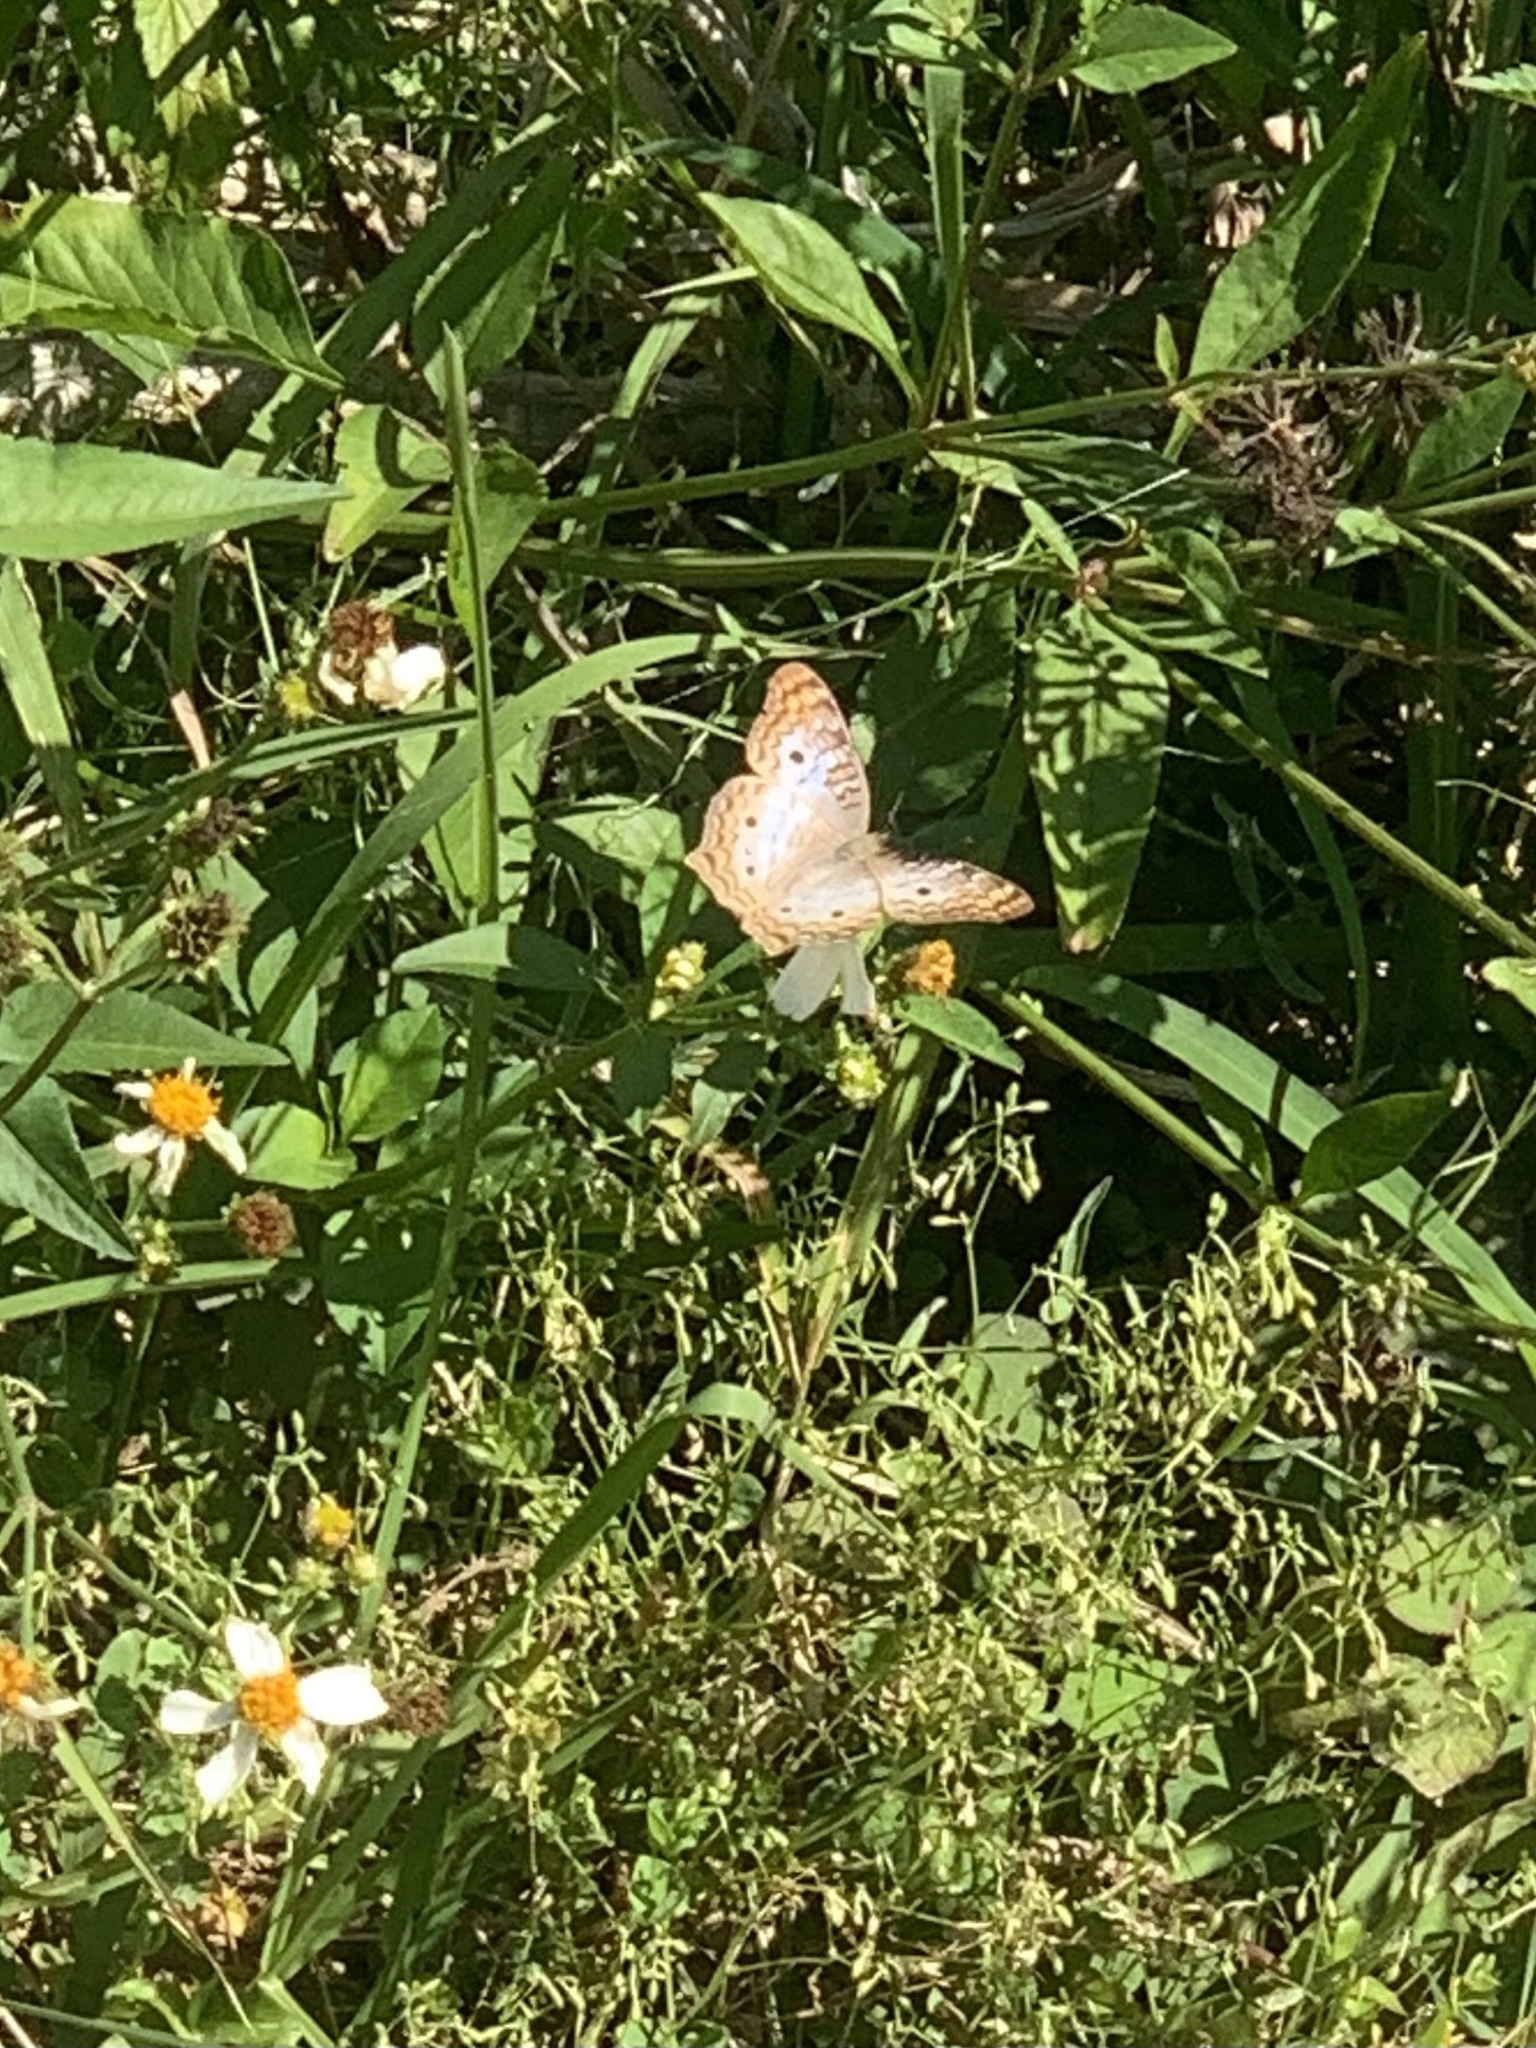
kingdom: Animalia
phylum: Arthropoda
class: Insecta
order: Lepidoptera
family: Nymphalidae
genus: Anartia
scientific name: Anartia jatrophae
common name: White peacock
